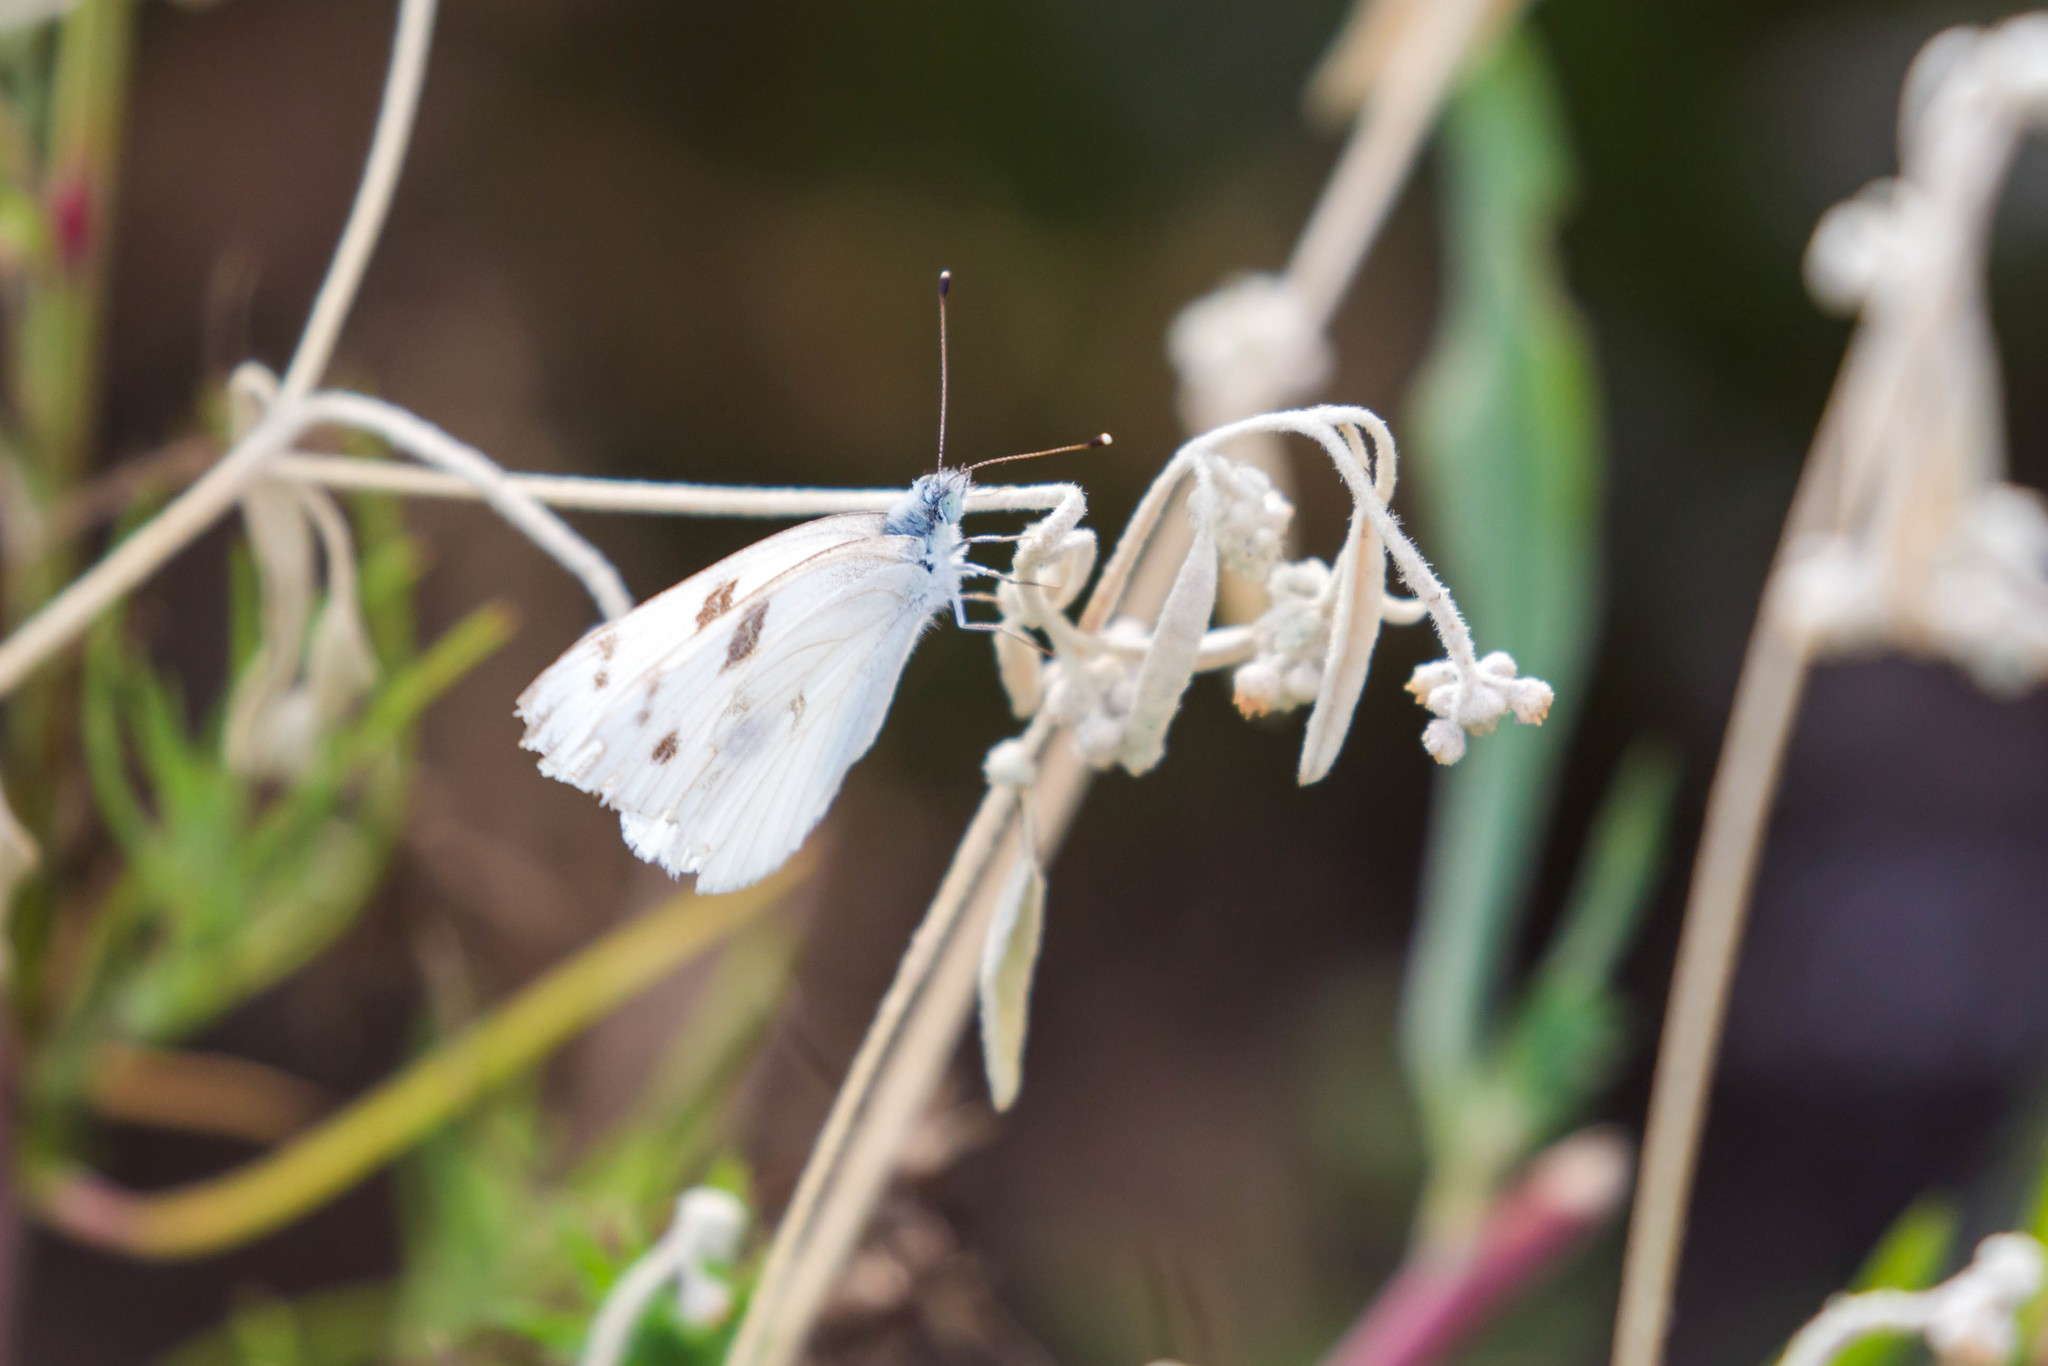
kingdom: Animalia
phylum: Arthropoda
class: Insecta
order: Lepidoptera
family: Pieridae
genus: Pontia
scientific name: Pontia protodice
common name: Checkered white
